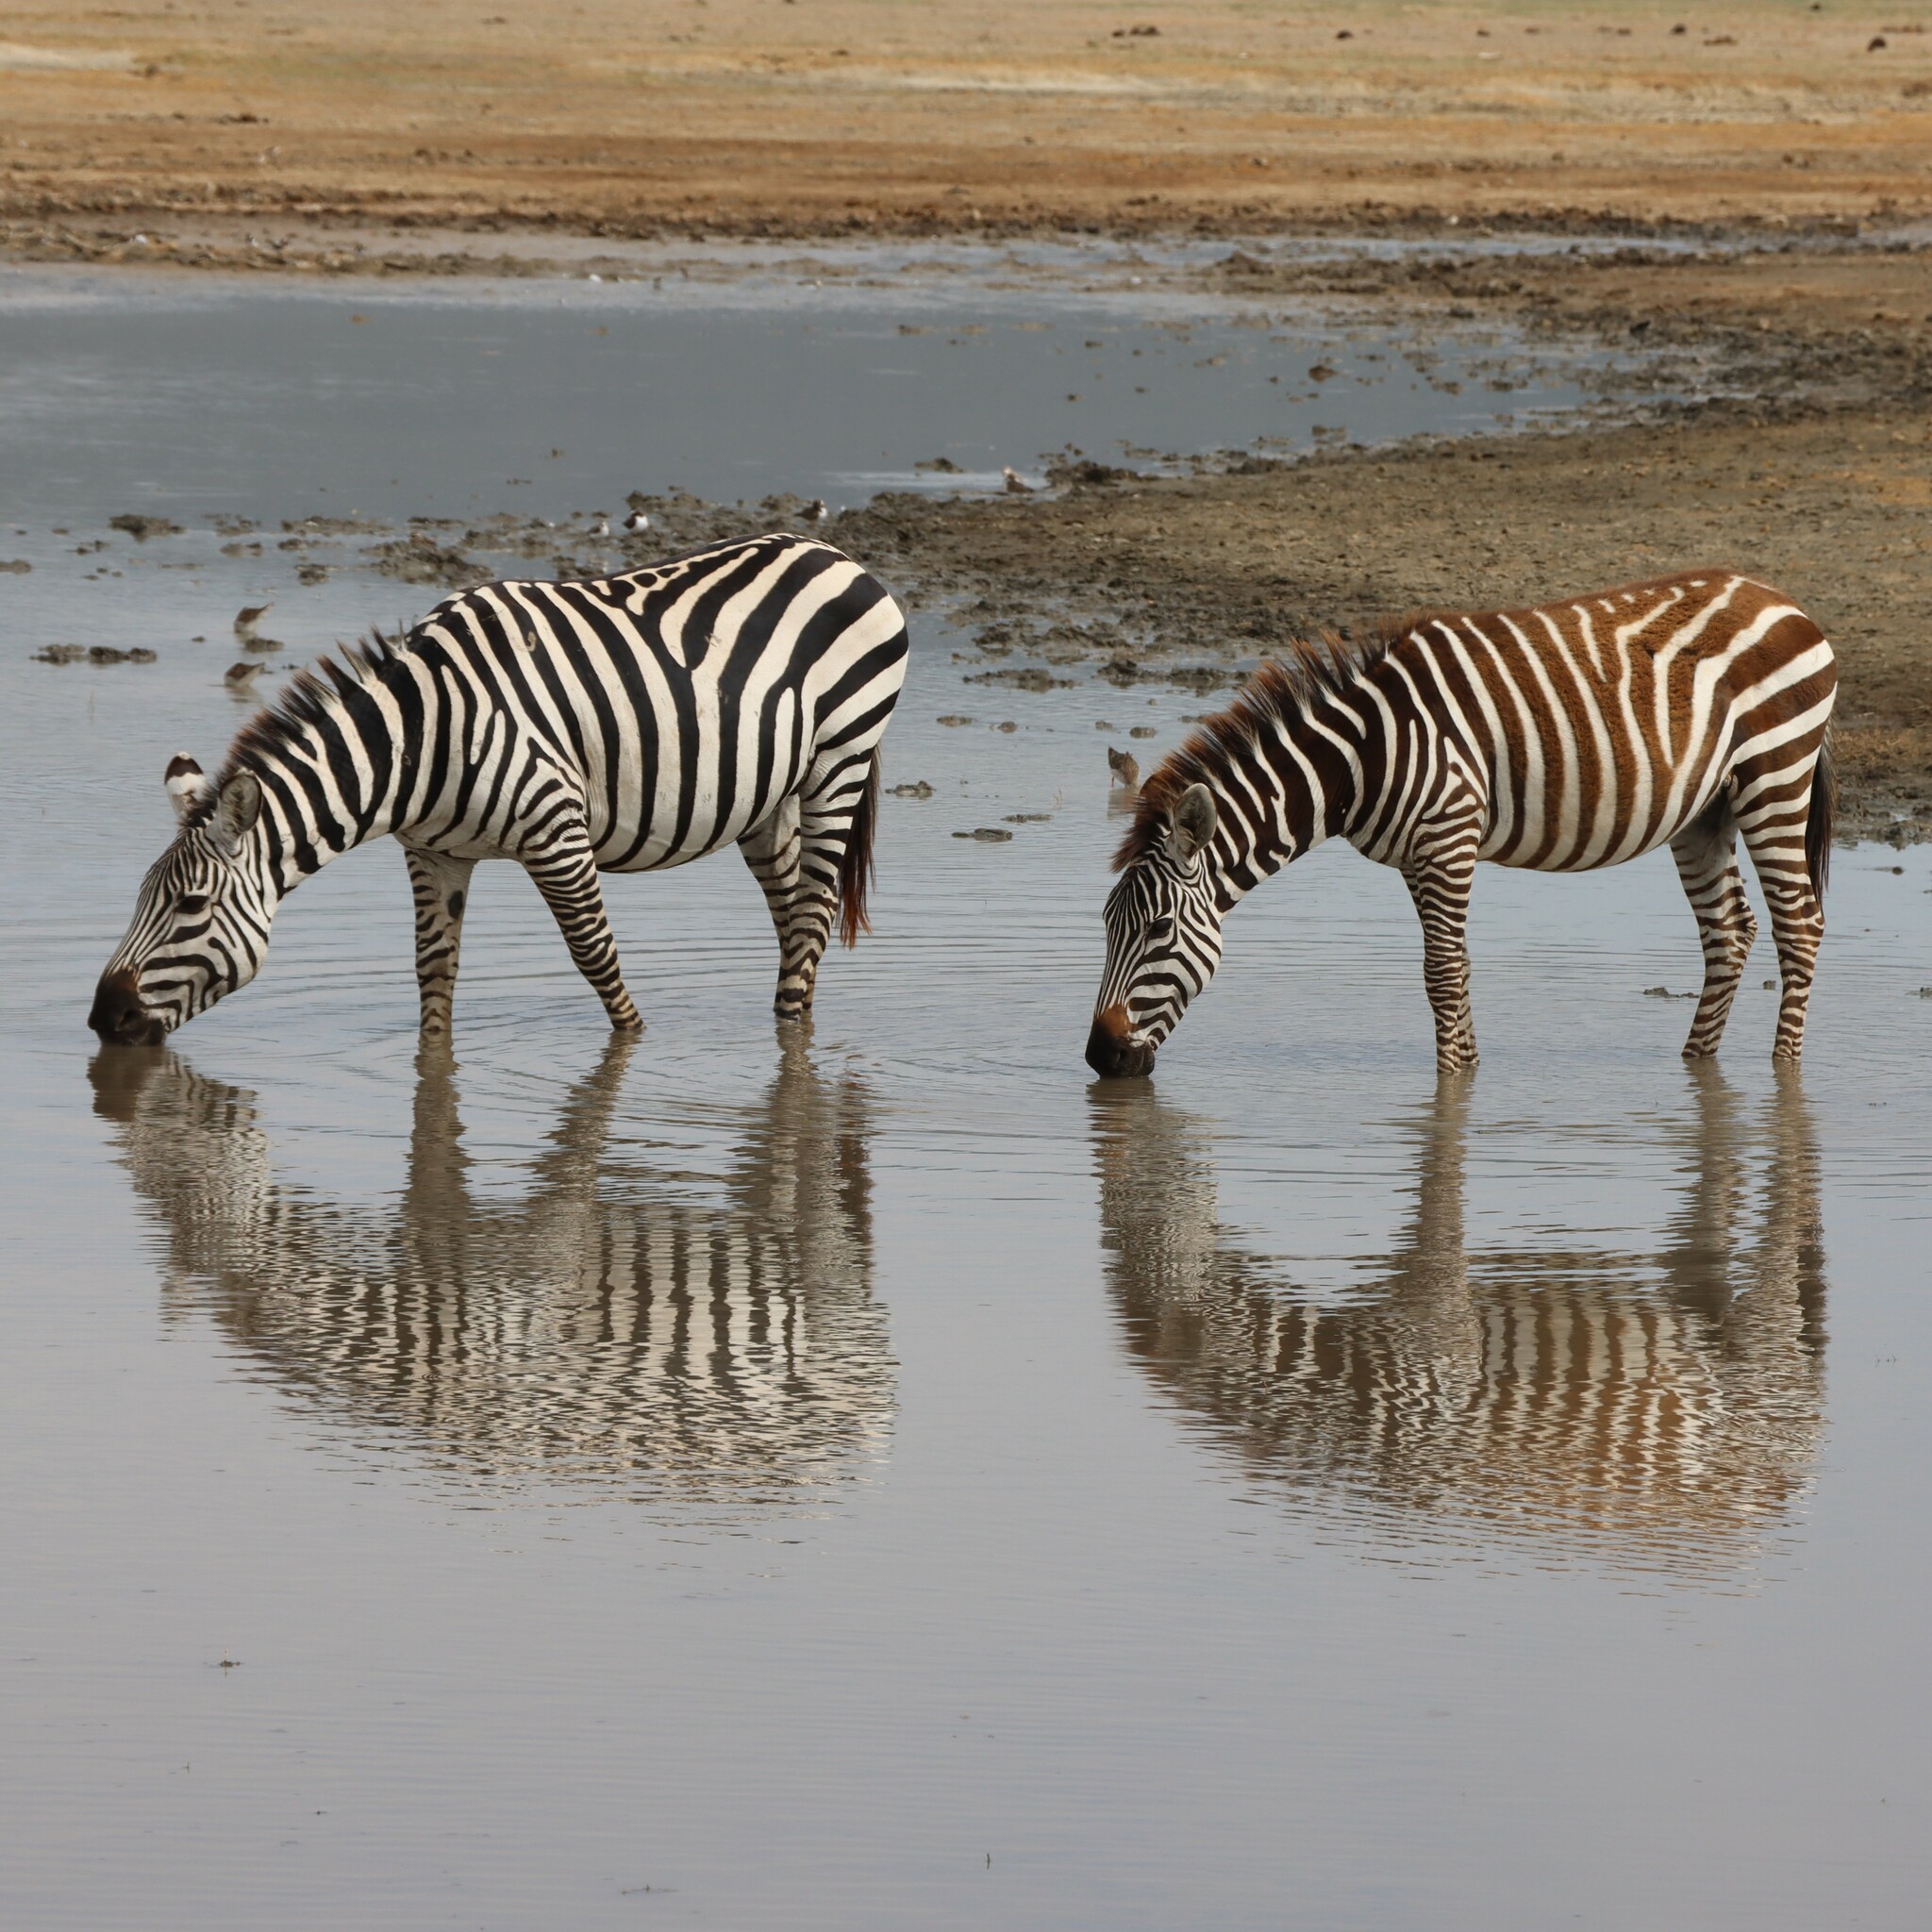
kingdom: Animalia
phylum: Chordata
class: Mammalia
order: Perissodactyla
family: Equidae
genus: Equus
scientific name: Equus quagga
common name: Plains zebra
